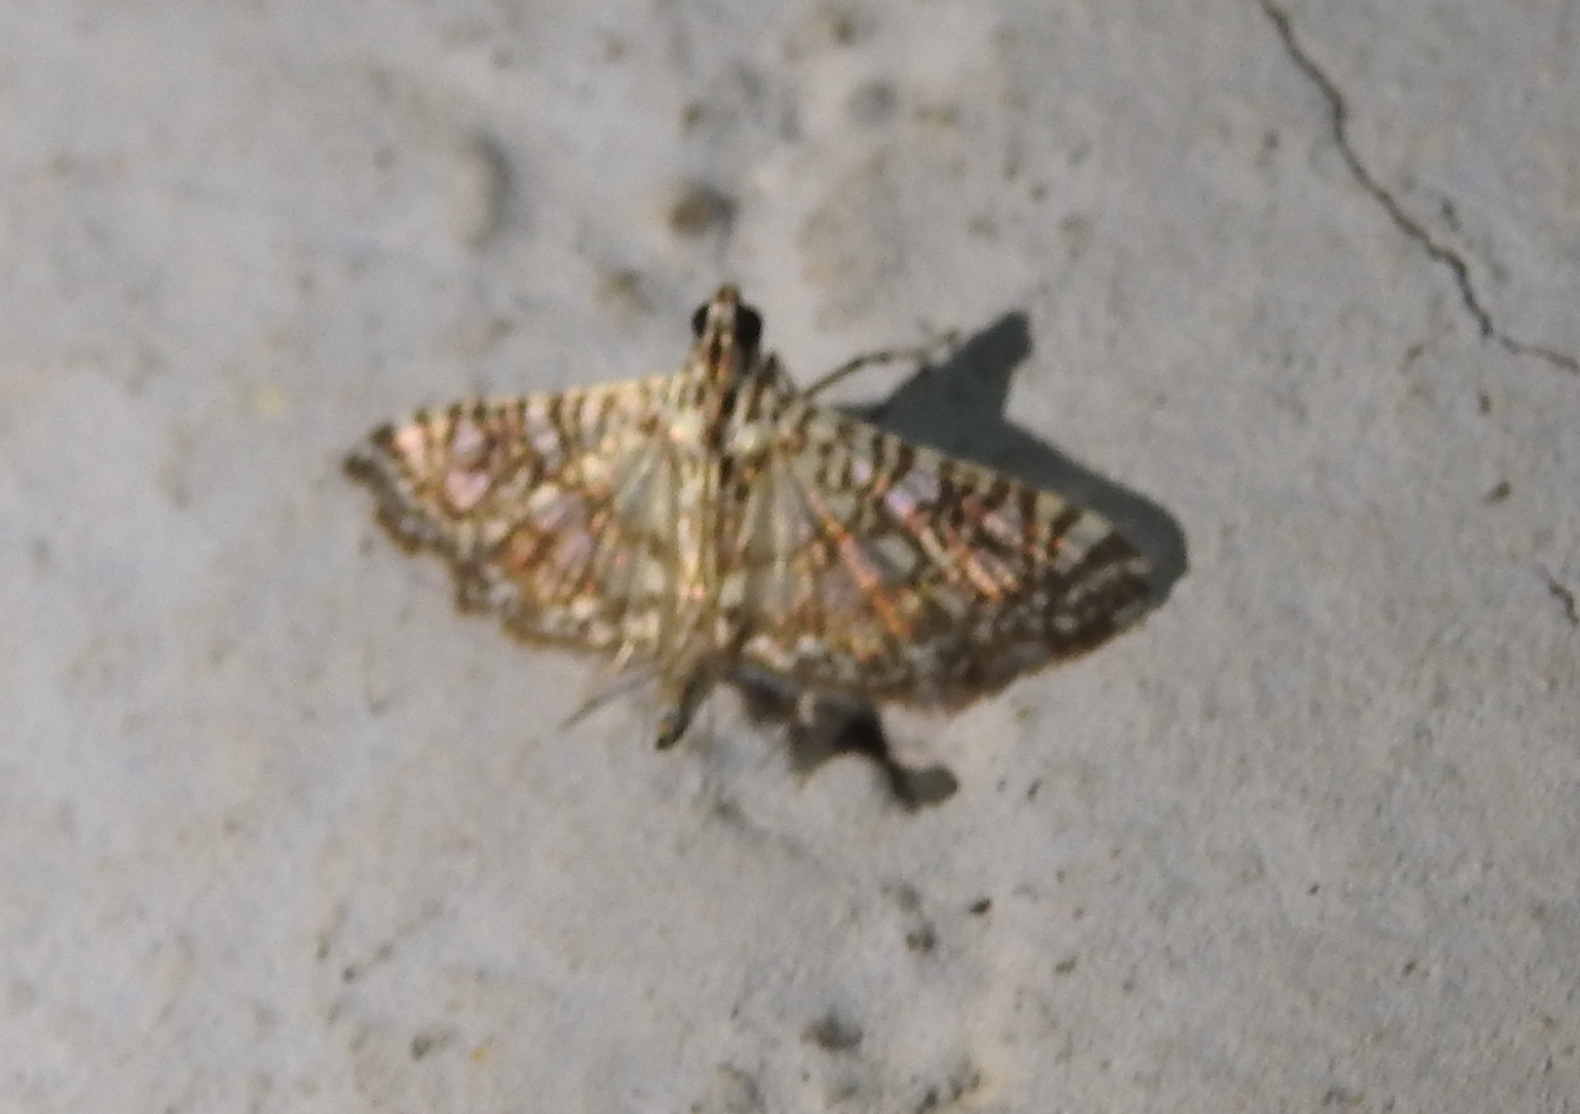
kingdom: Animalia
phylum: Arthropoda
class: Insecta
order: Lepidoptera
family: Crambidae
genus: Glyphodes
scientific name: Glyphodes onychinalis
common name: Swan plant moth
